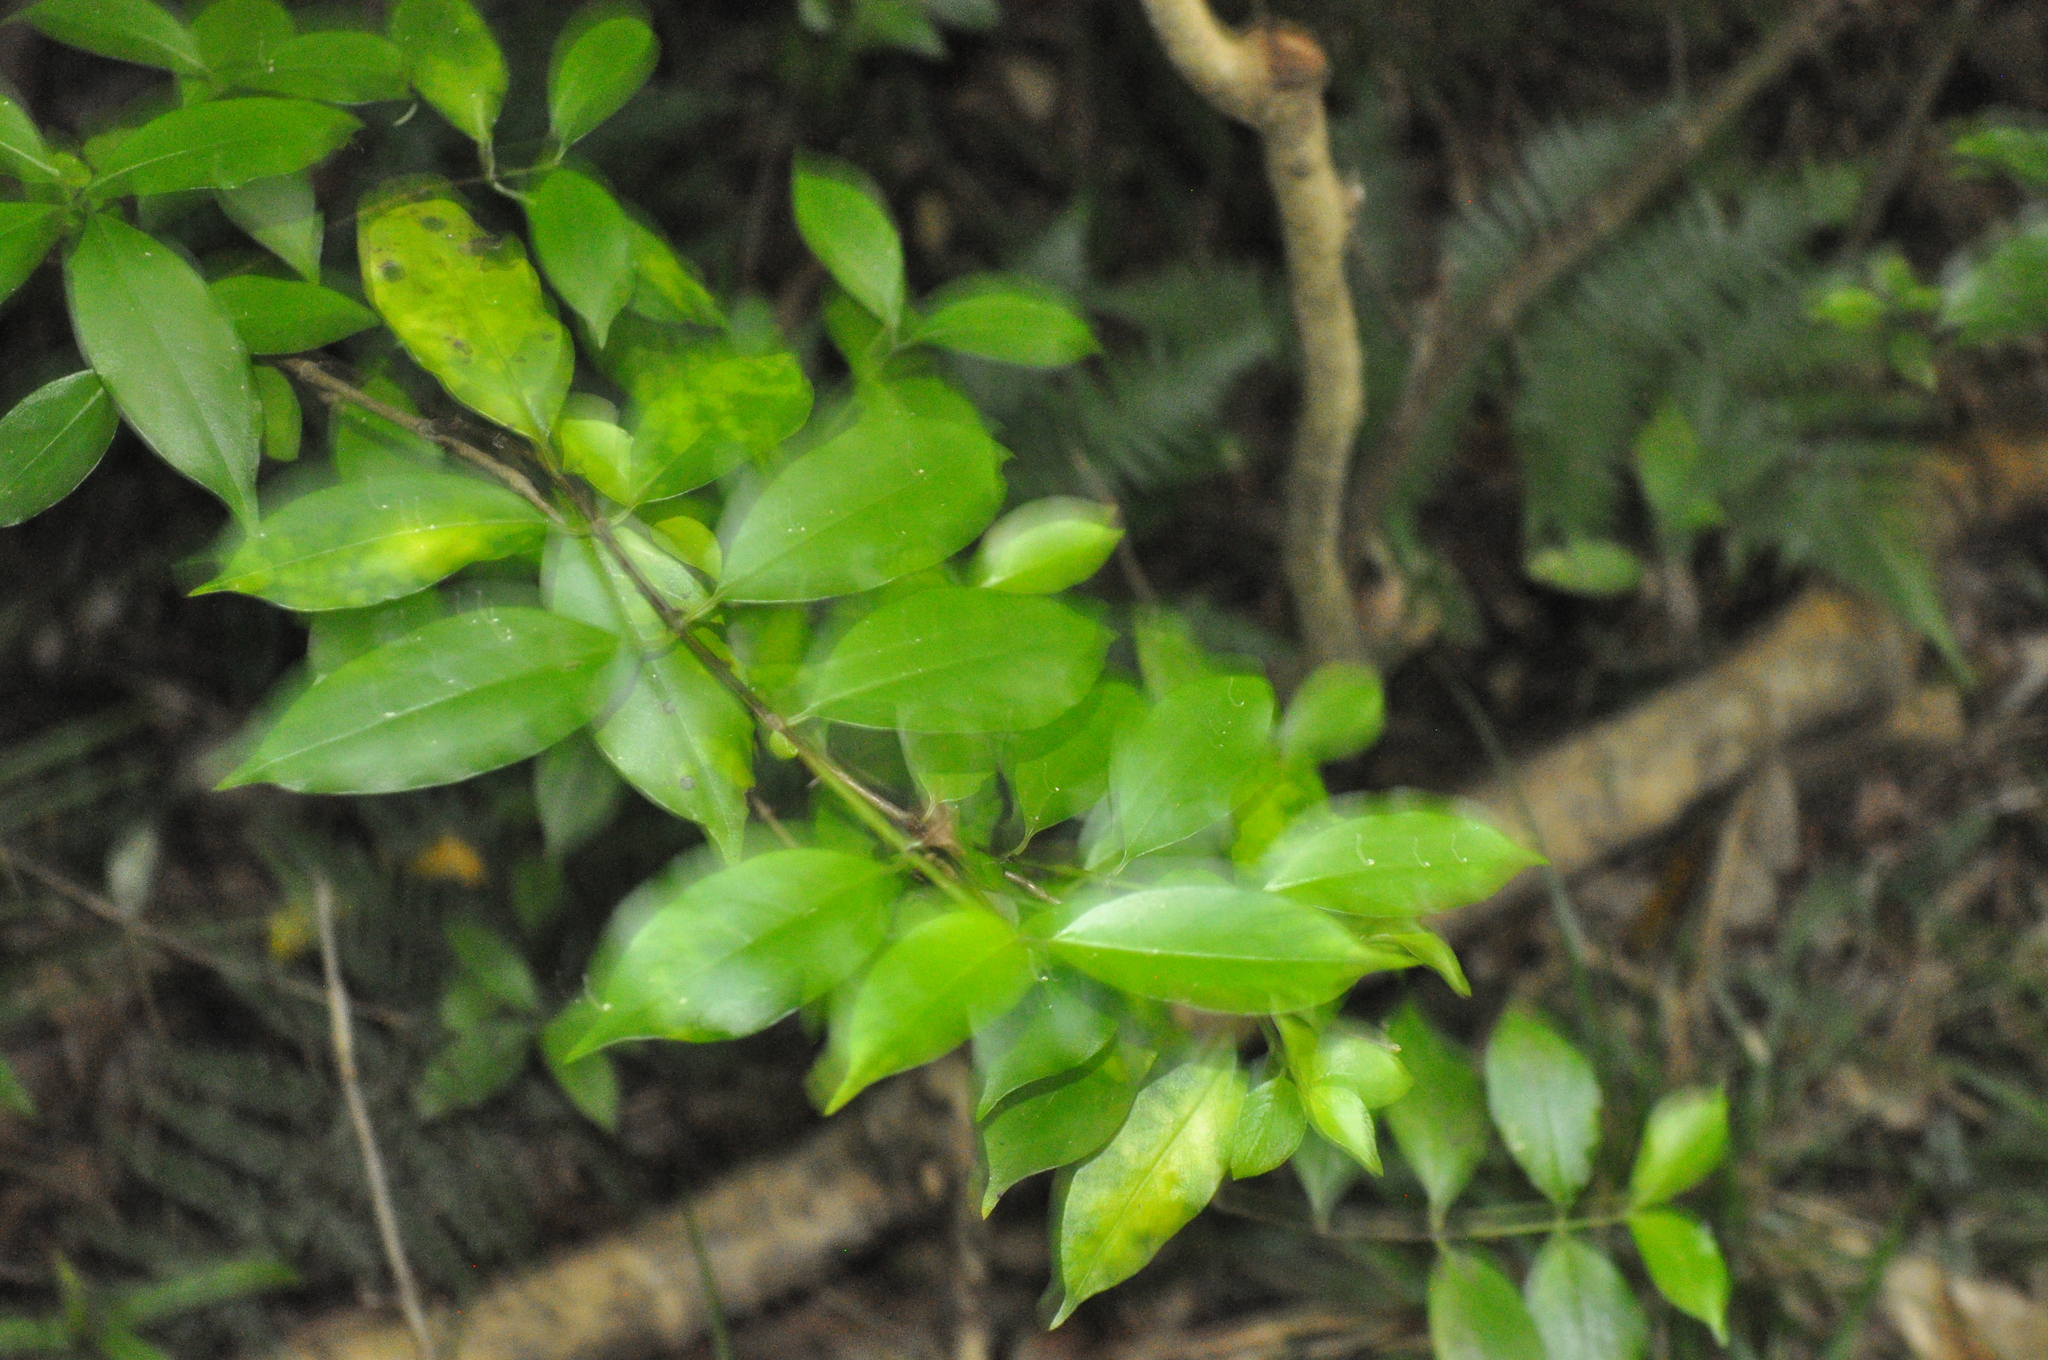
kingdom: Plantae
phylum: Tracheophyta
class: Magnoliopsida
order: Gentianales
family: Loganiaceae
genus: Geniostoma
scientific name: Geniostoma ligustrifolium
